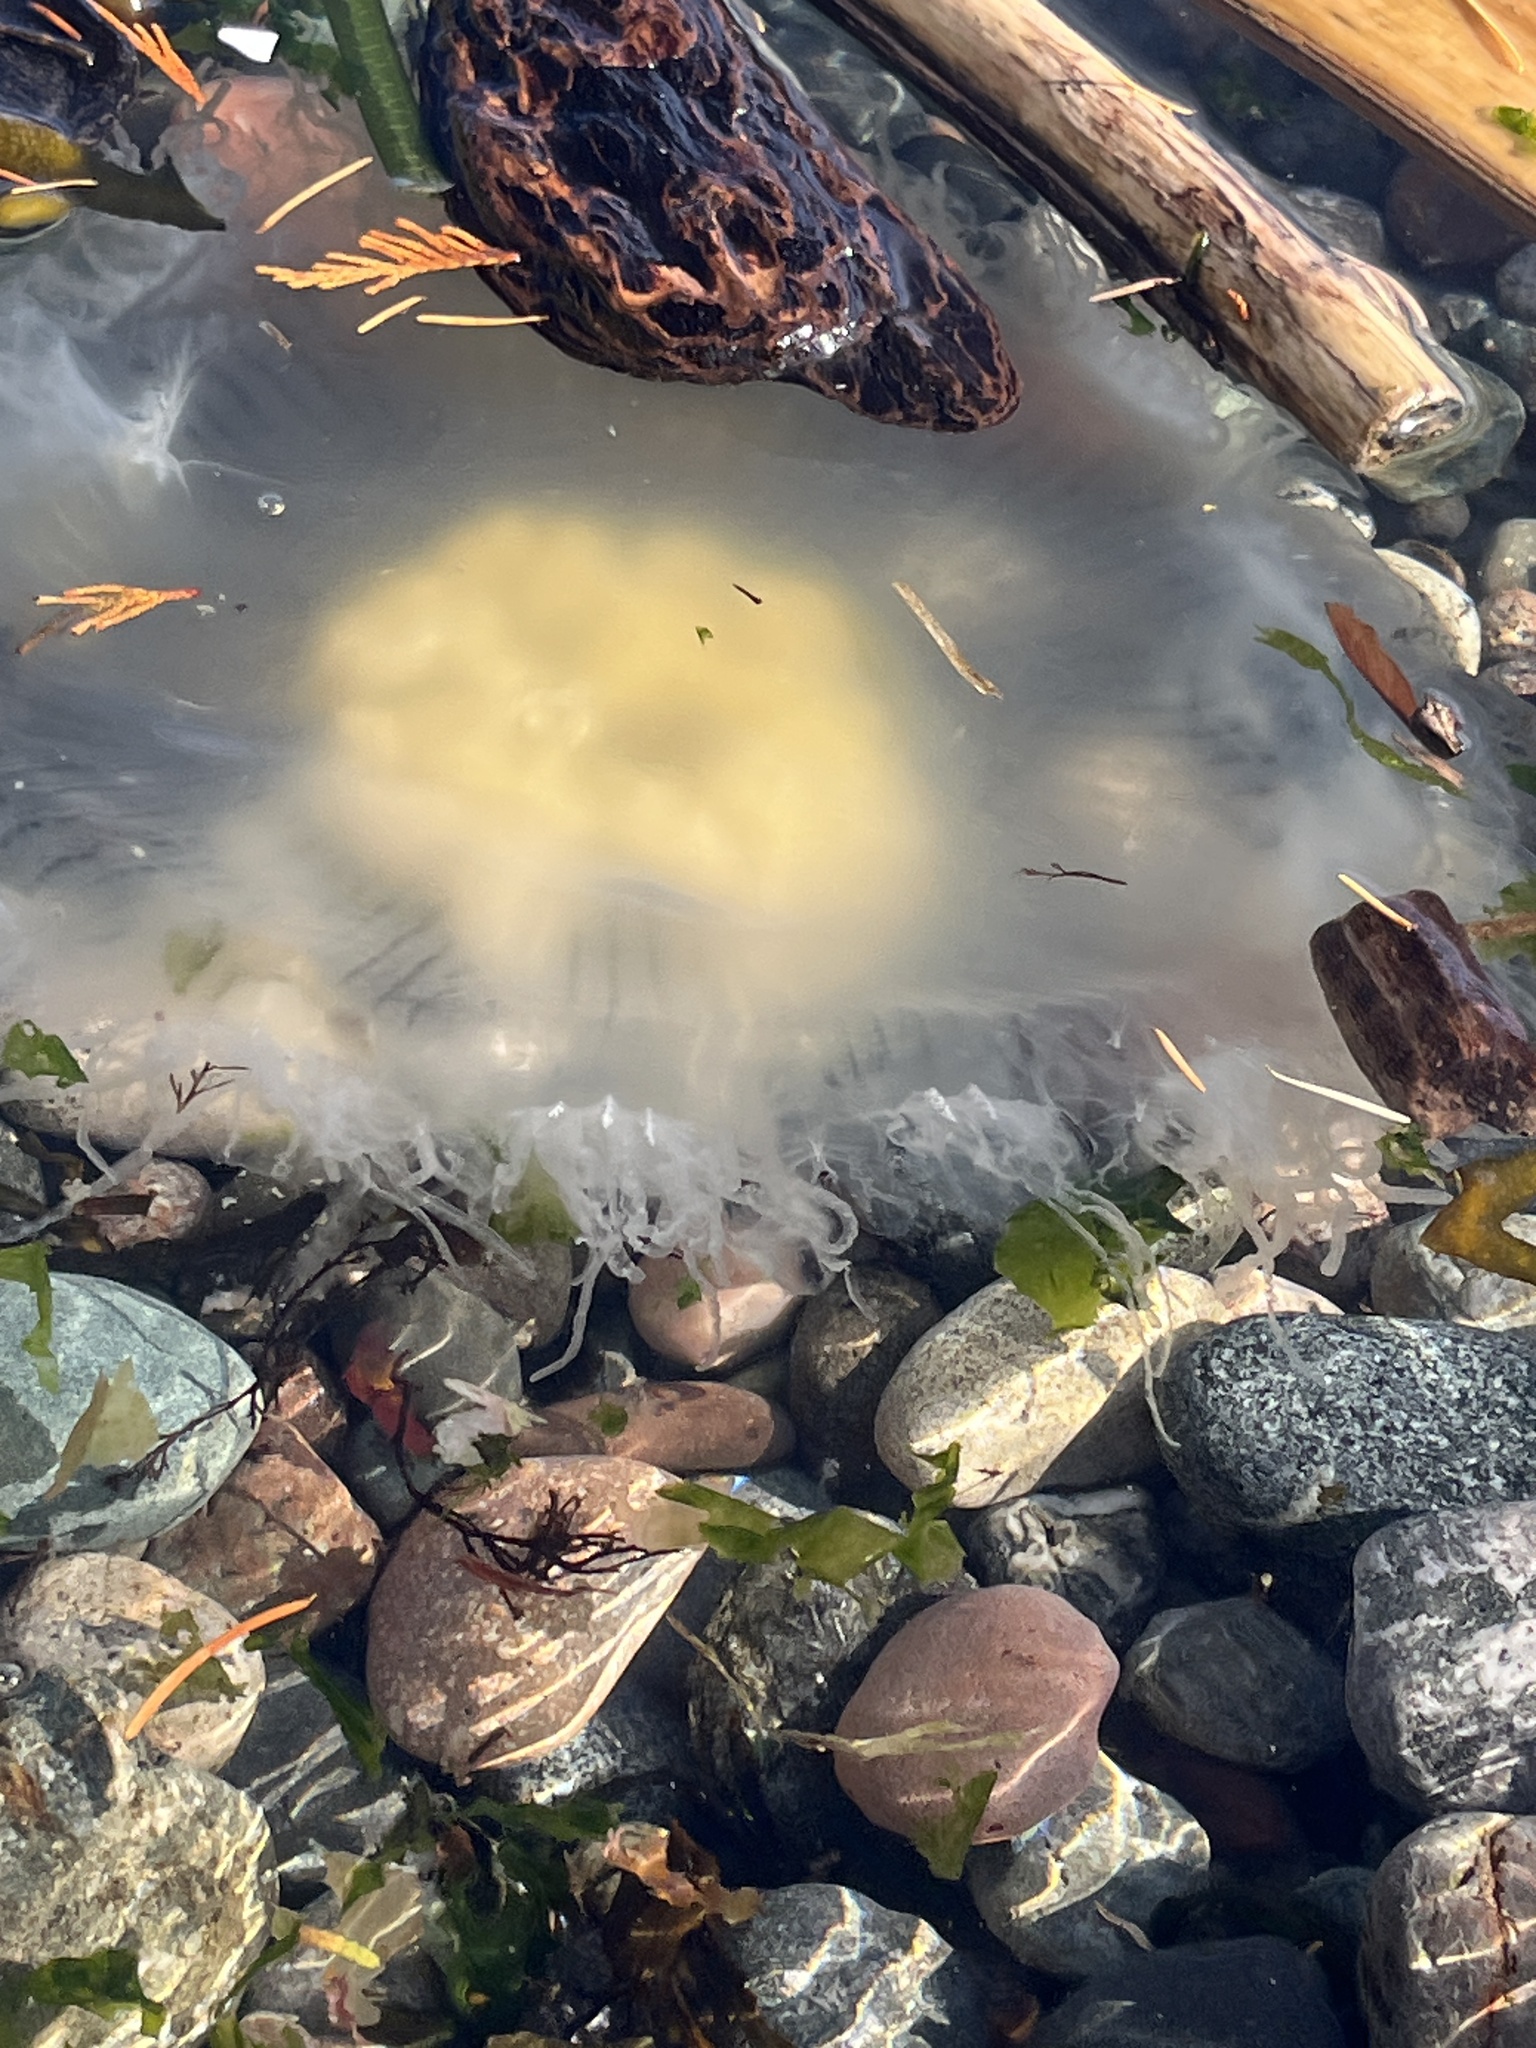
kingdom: Animalia
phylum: Cnidaria
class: Scyphozoa
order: Semaeostomeae
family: Phacellophoridae
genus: Phacellophora
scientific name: Phacellophora camtschatica
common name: Fried-egg jellyfish
